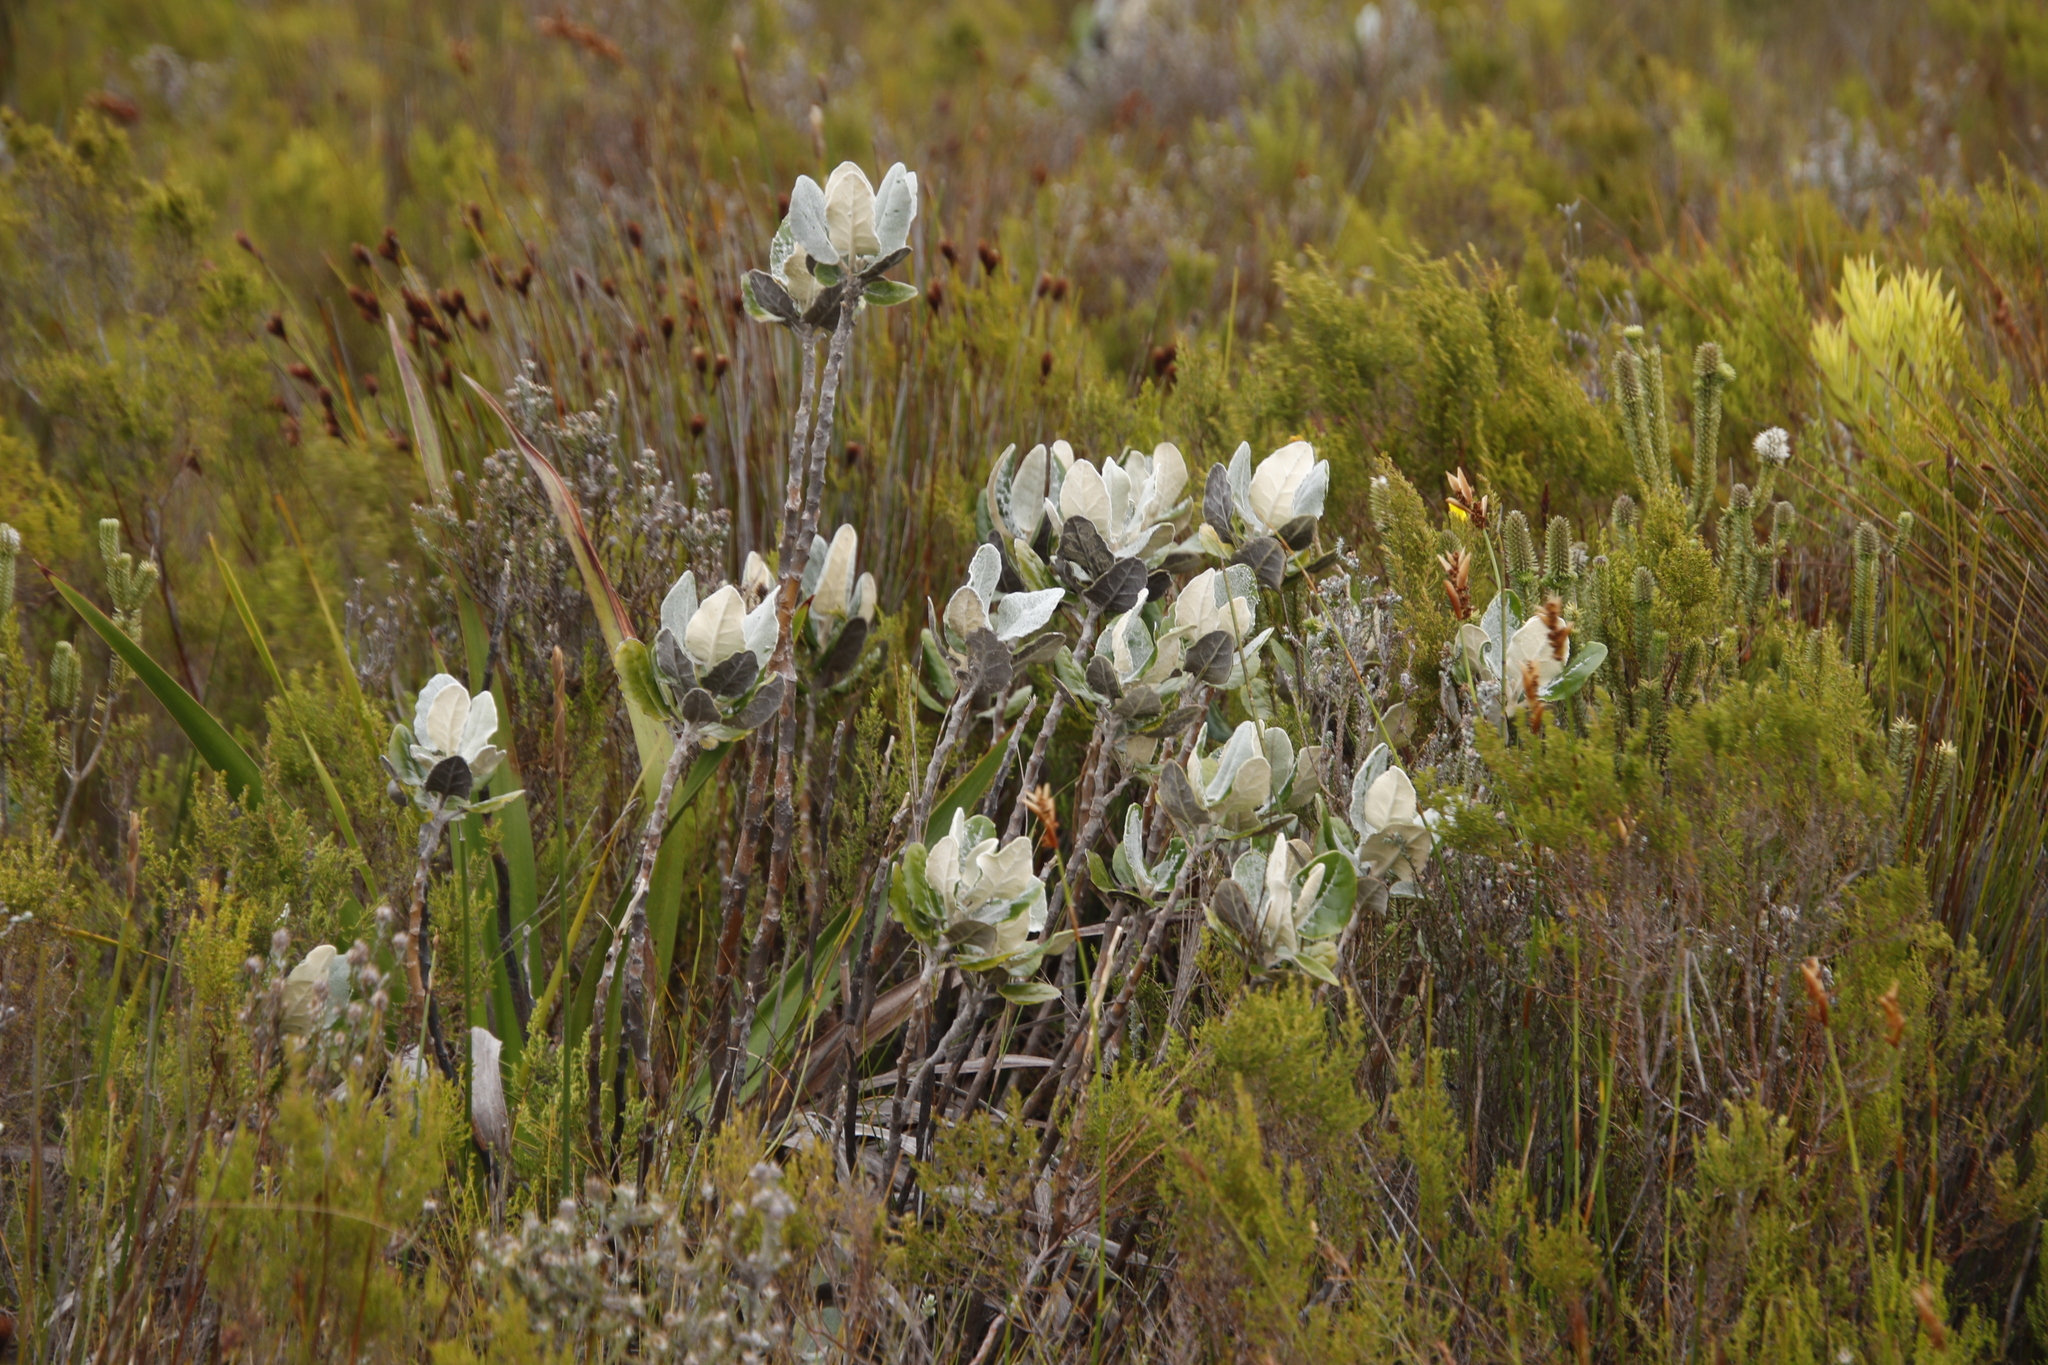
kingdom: Plantae
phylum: Tracheophyta
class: Magnoliopsida
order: Asterales
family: Asteraceae
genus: Capelio
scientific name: Capelio tabularis
